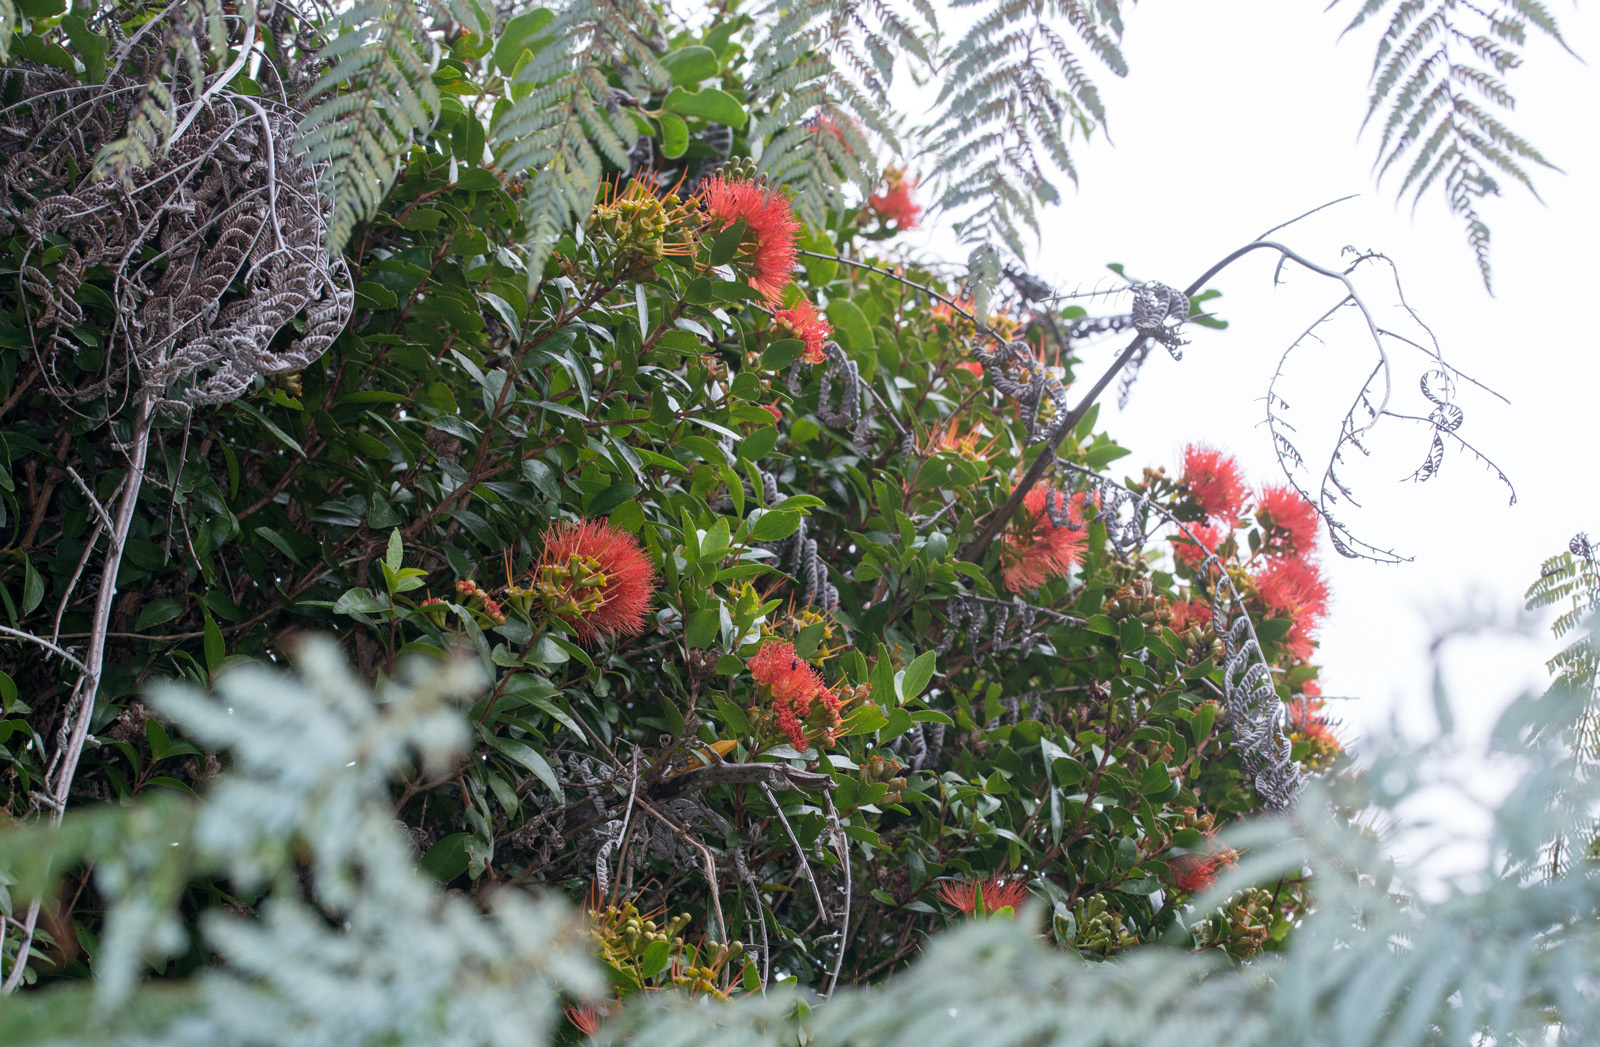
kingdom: Plantae
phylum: Tracheophyta
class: Magnoliopsida
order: Myrtales
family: Myrtaceae
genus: Metrosideros
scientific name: Metrosideros fulgens
